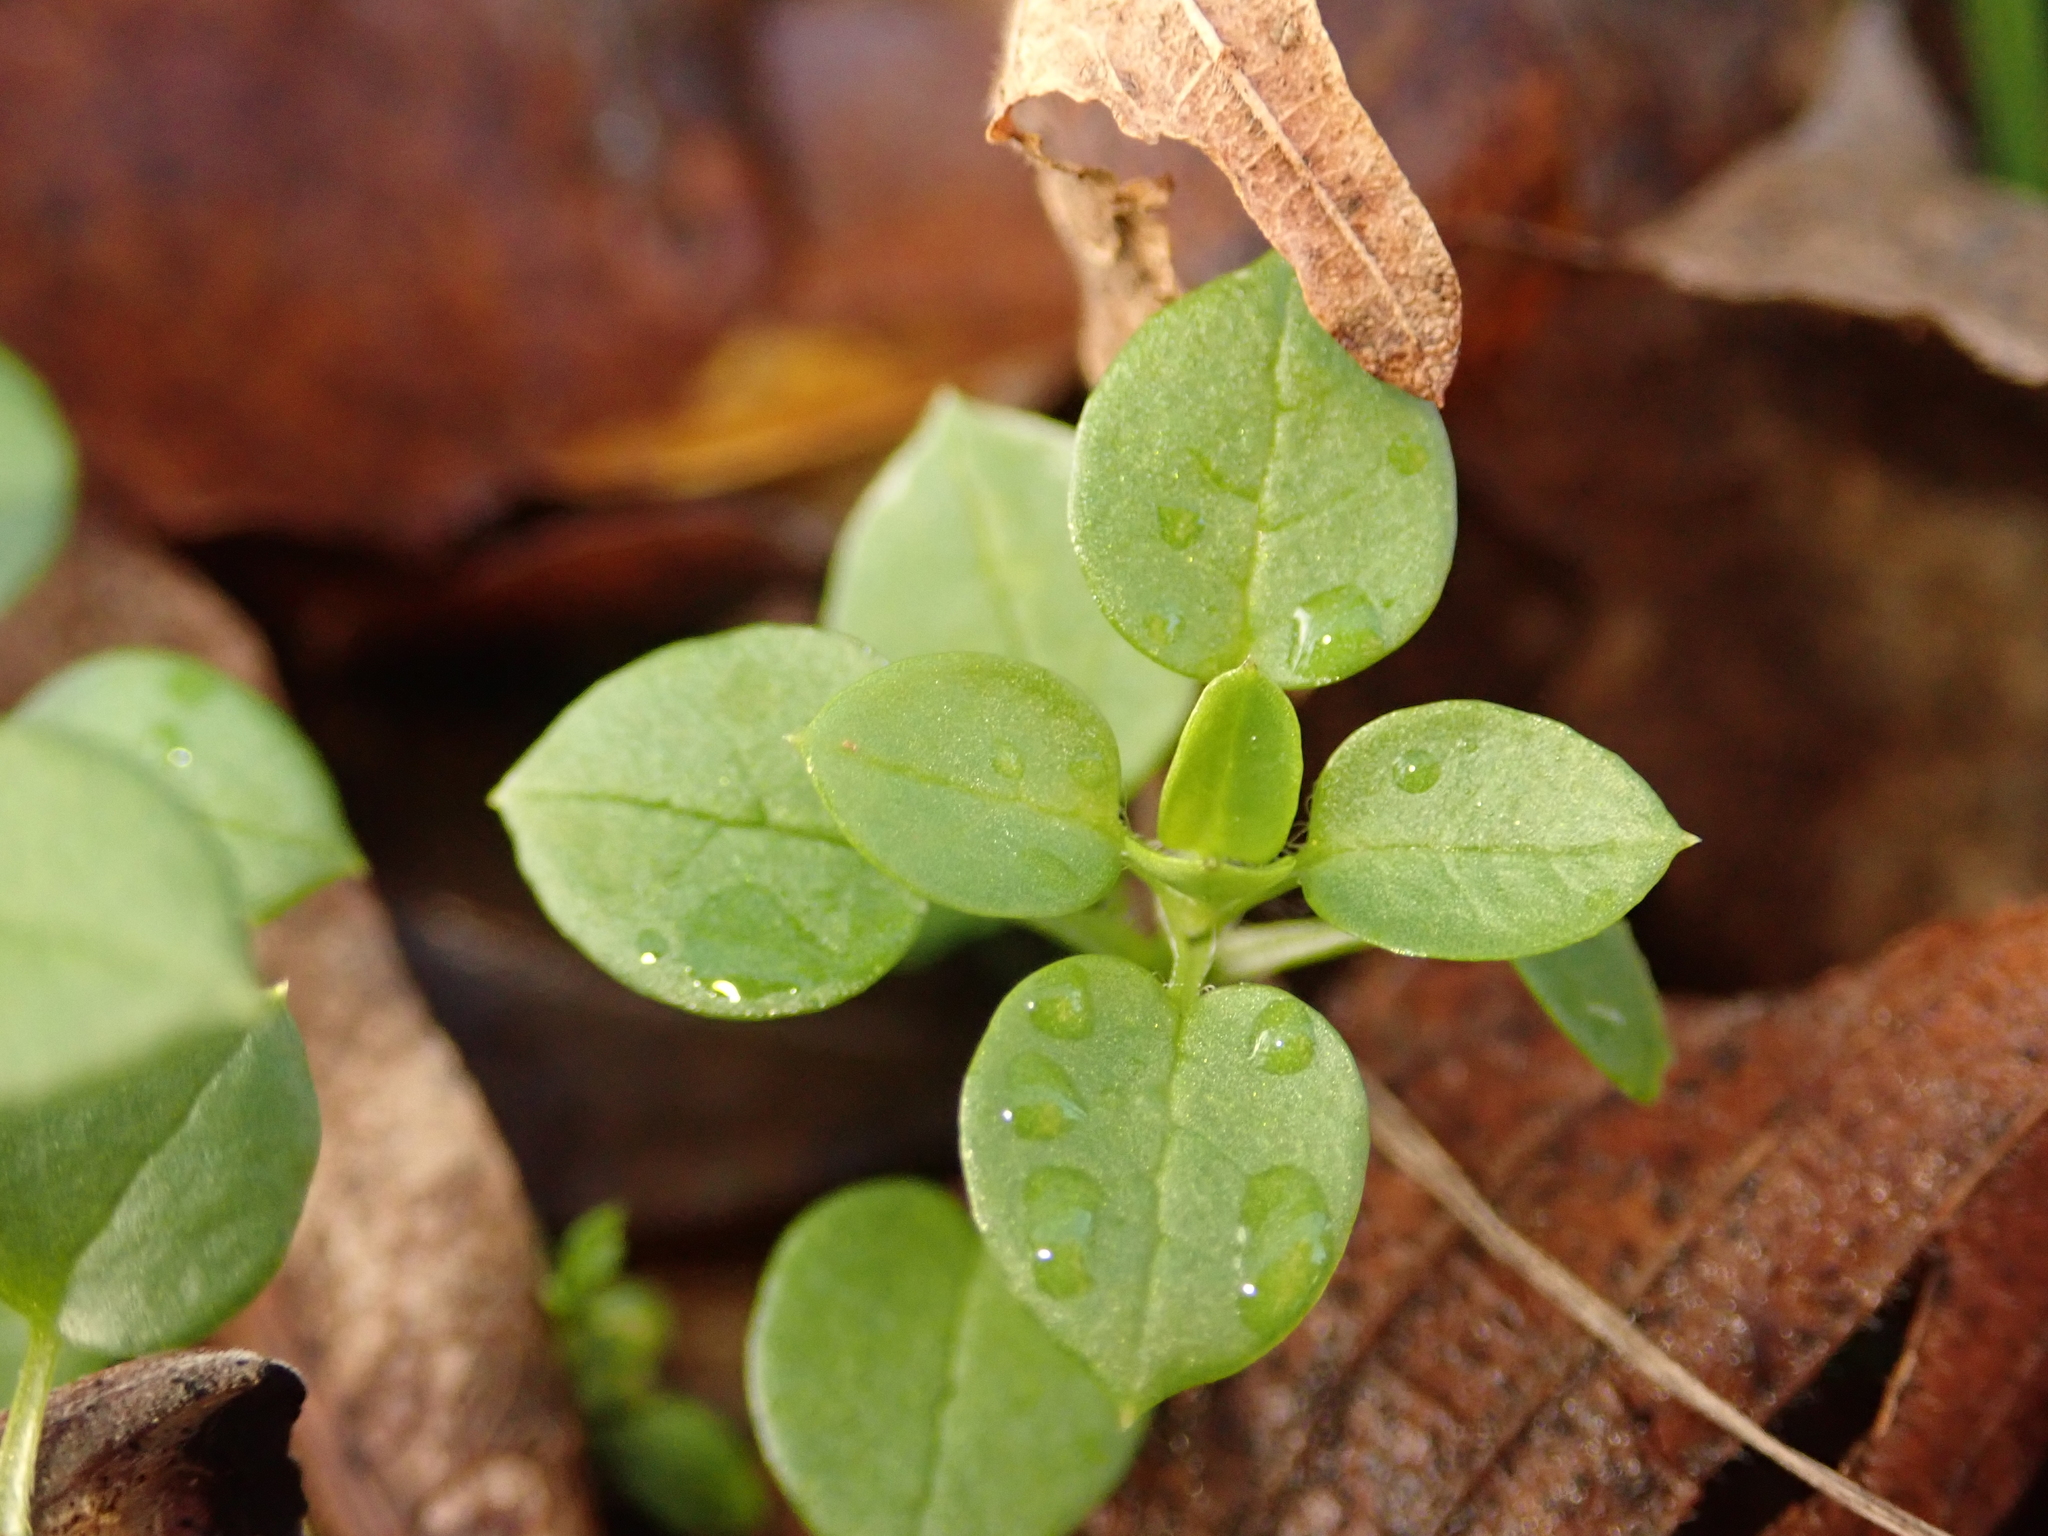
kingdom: Plantae
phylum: Tracheophyta
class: Magnoliopsida
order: Caryophyllales
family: Caryophyllaceae
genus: Stellaria
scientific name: Stellaria media
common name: Common chickweed
